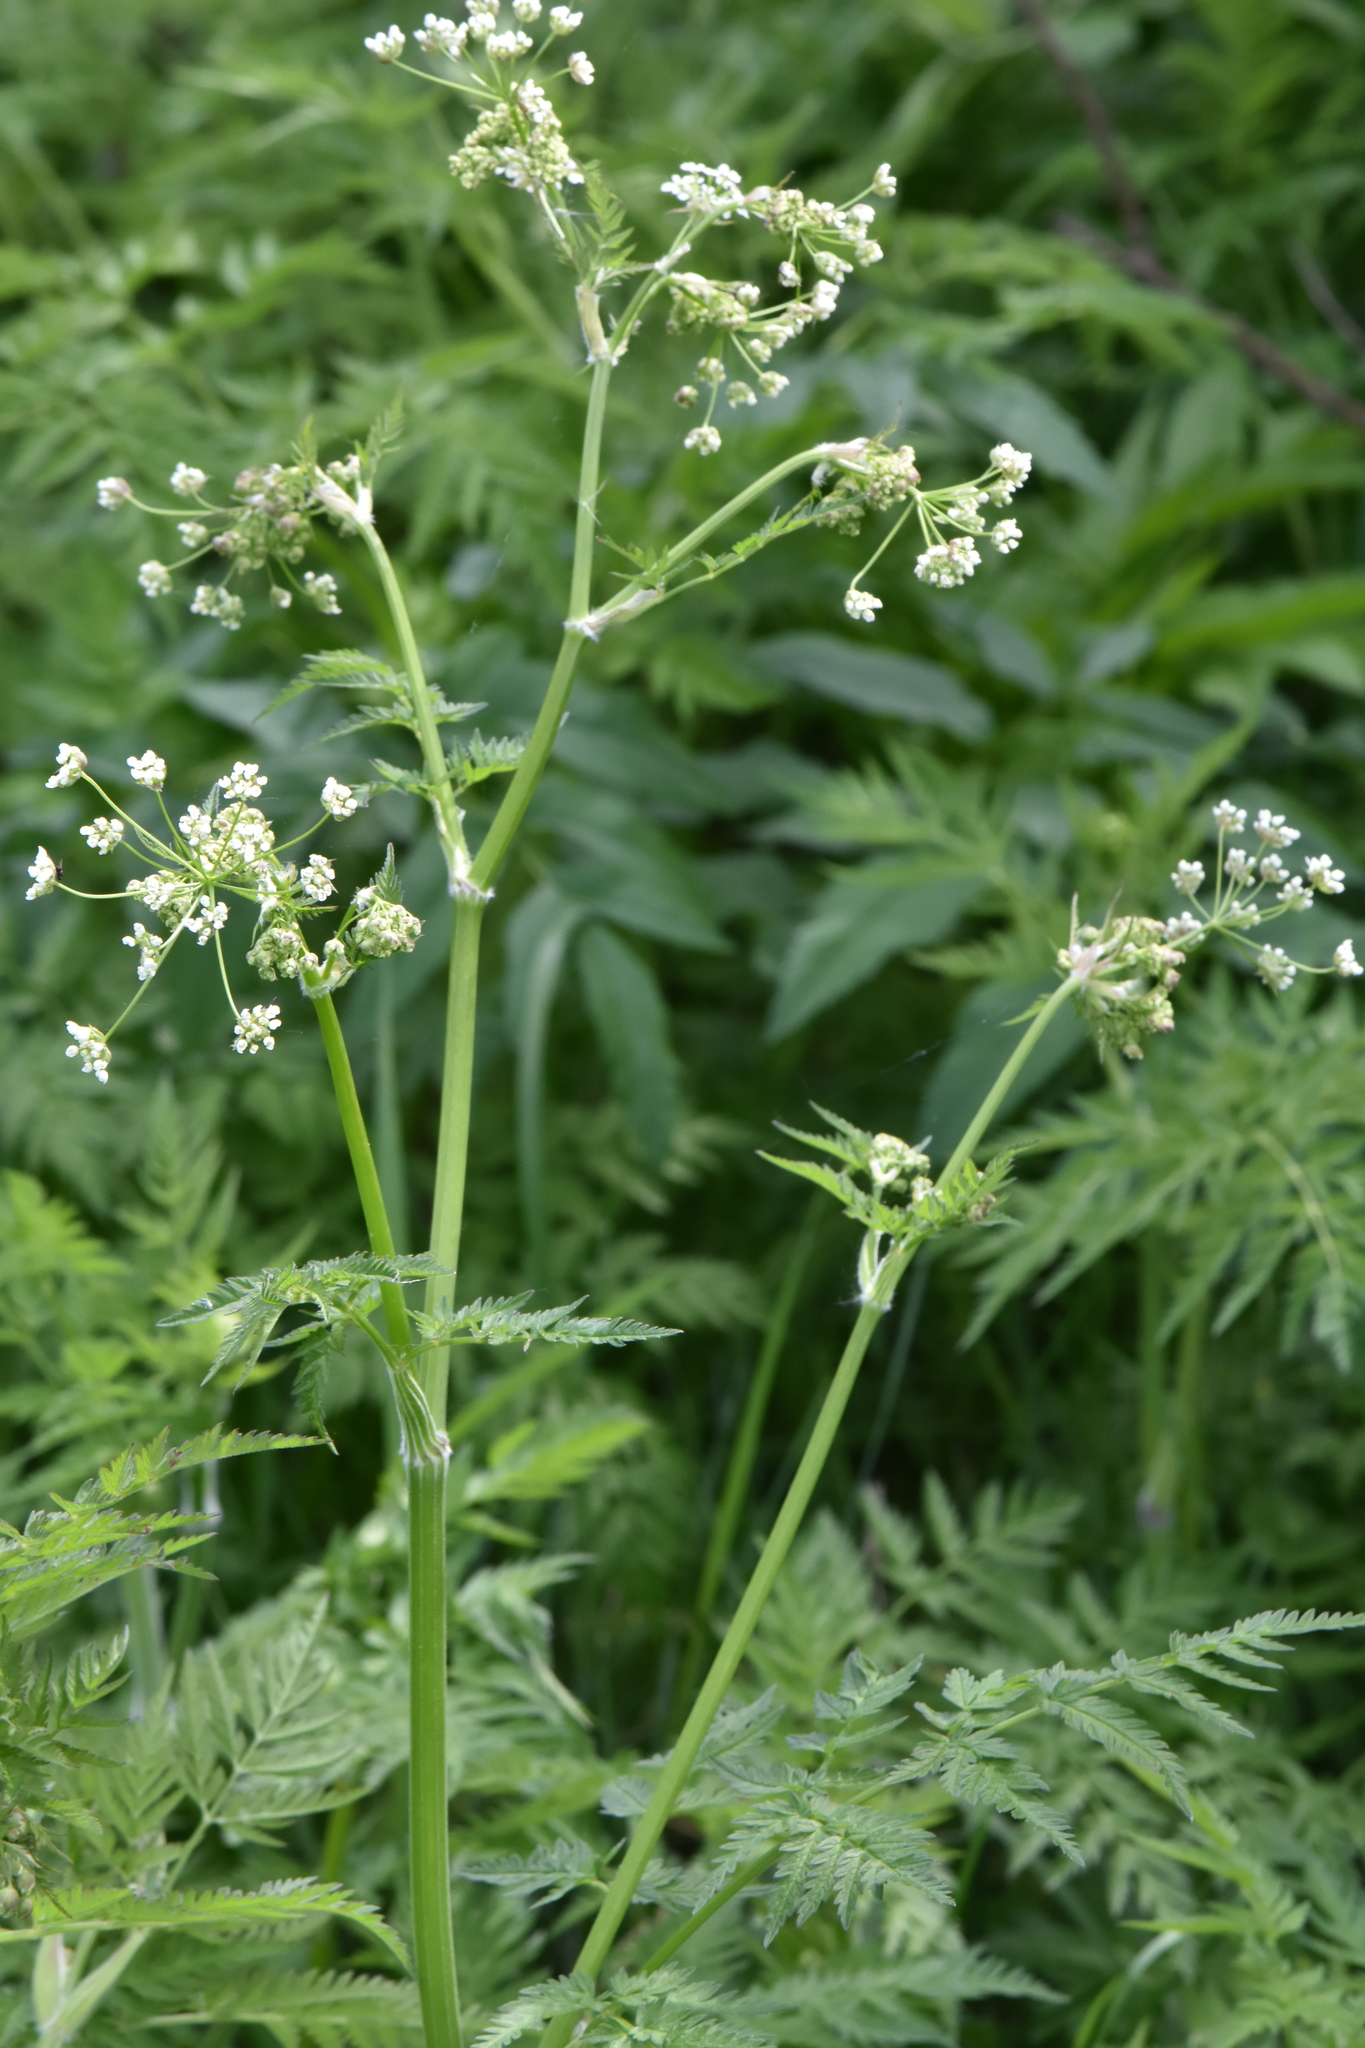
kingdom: Plantae
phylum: Tracheophyta
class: Magnoliopsida
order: Apiales
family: Apiaceae
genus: Anthriscus
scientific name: Anthriscus sylvestris
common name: Cow parsley
